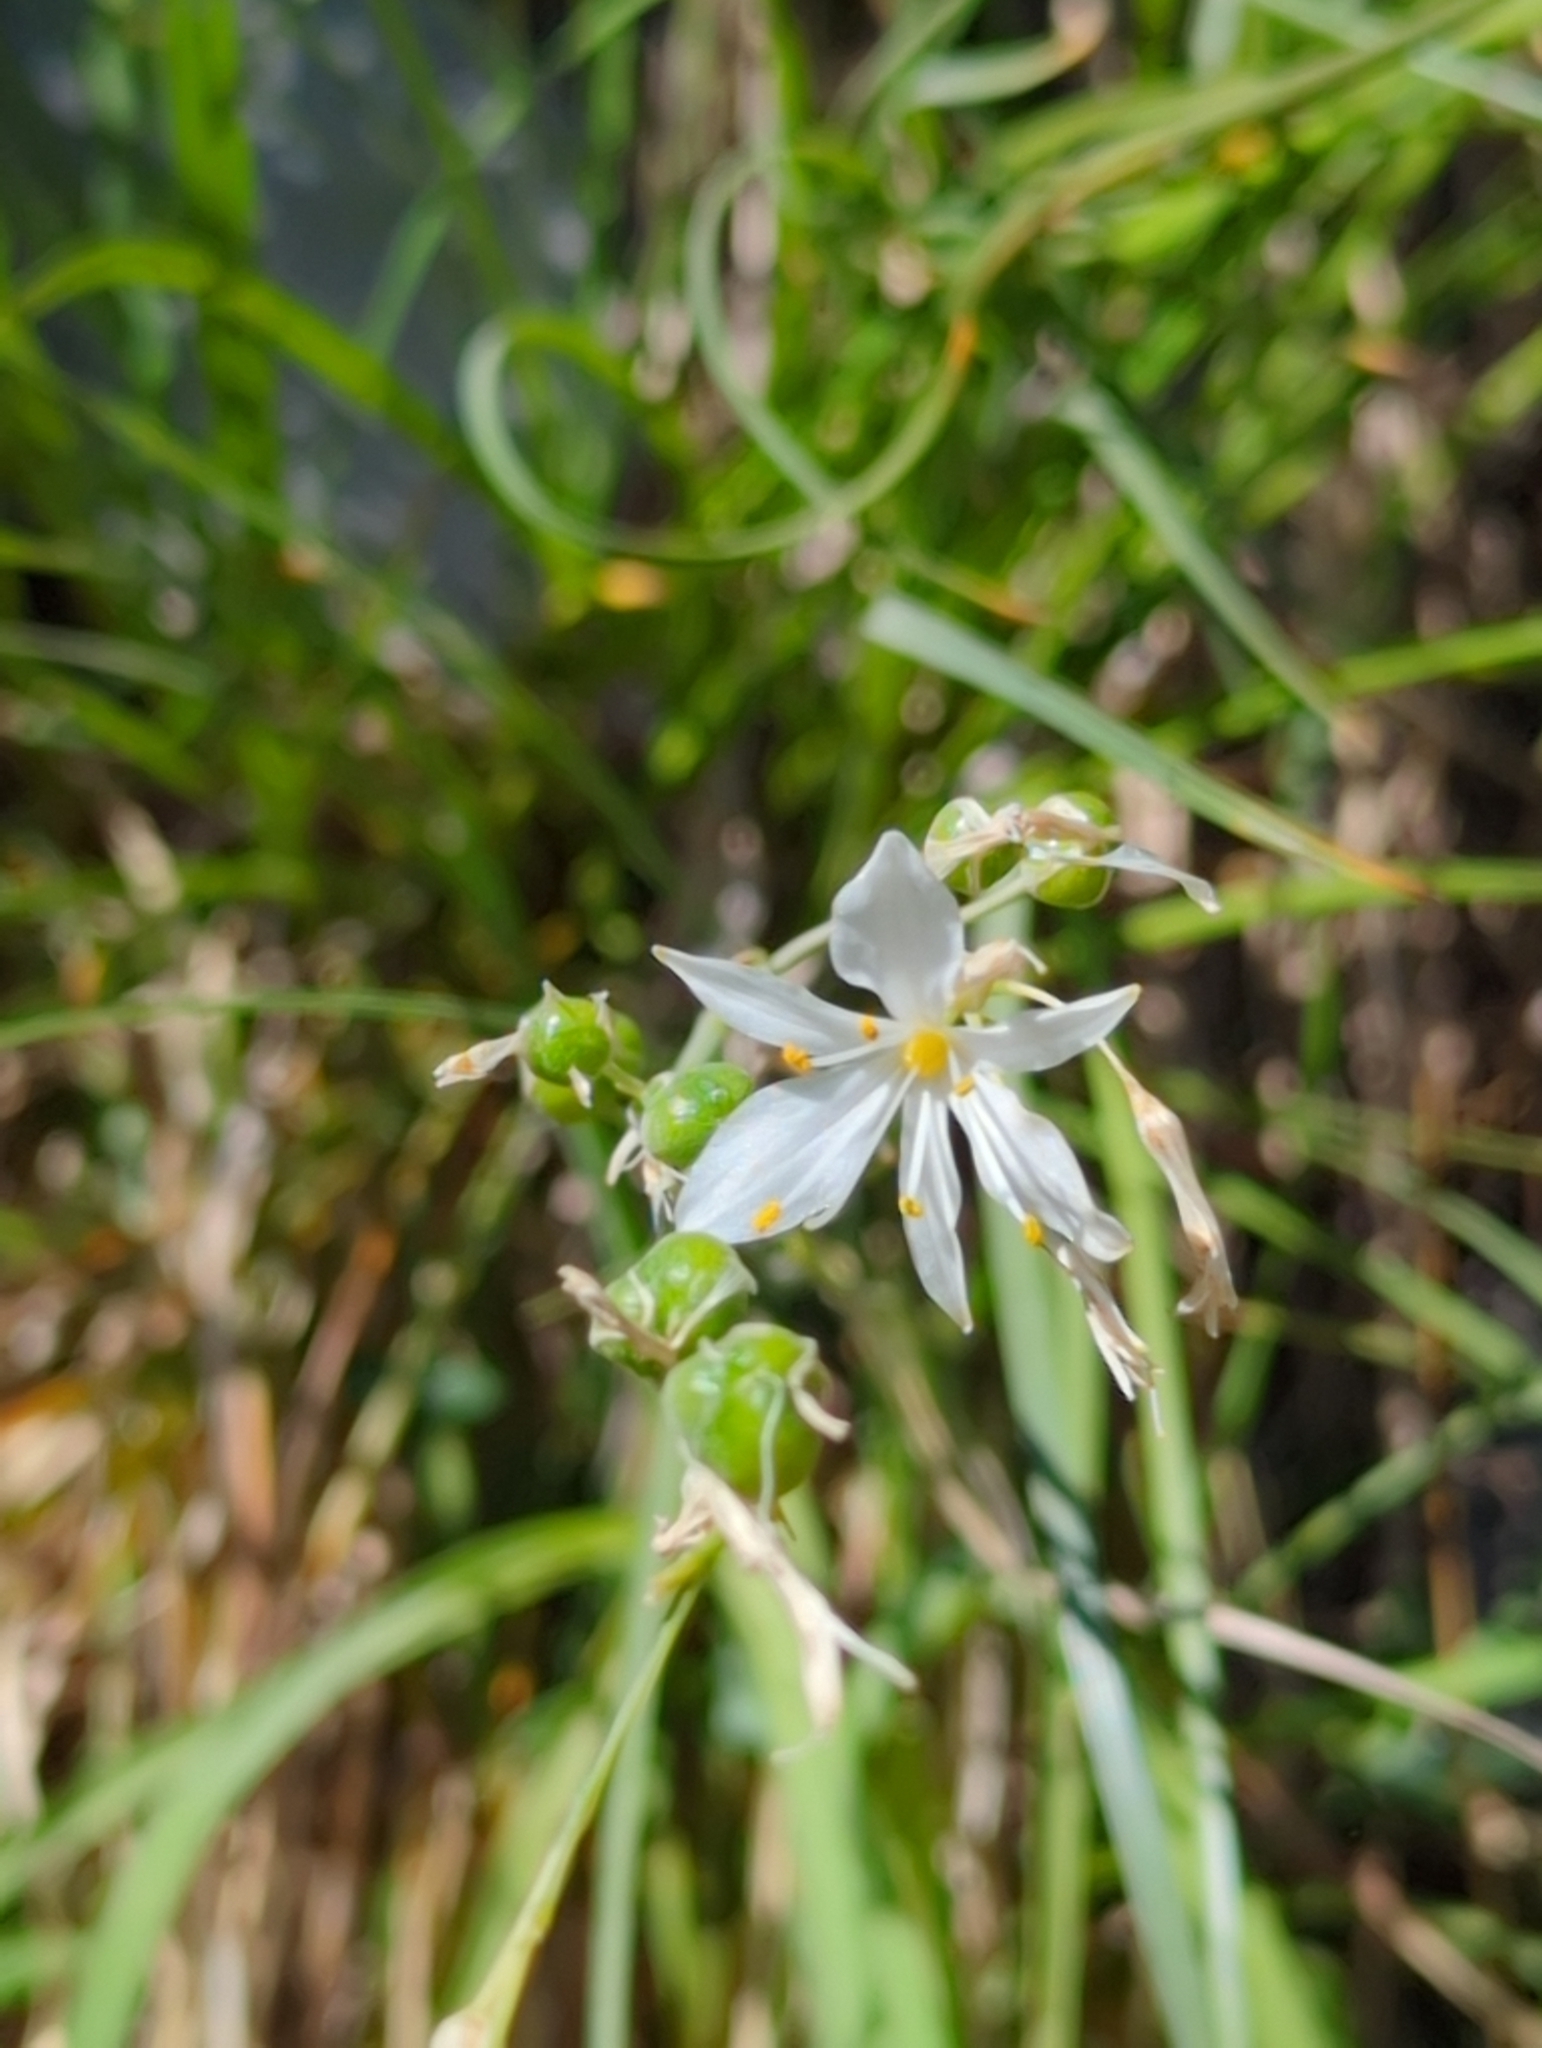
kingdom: Plantae
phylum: Tracheophyta
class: Liliopsida
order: Asparagales
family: Asparagaceae
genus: Anthericum
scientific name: Anthericum ramosum
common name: Branched st. bernard's-lily
